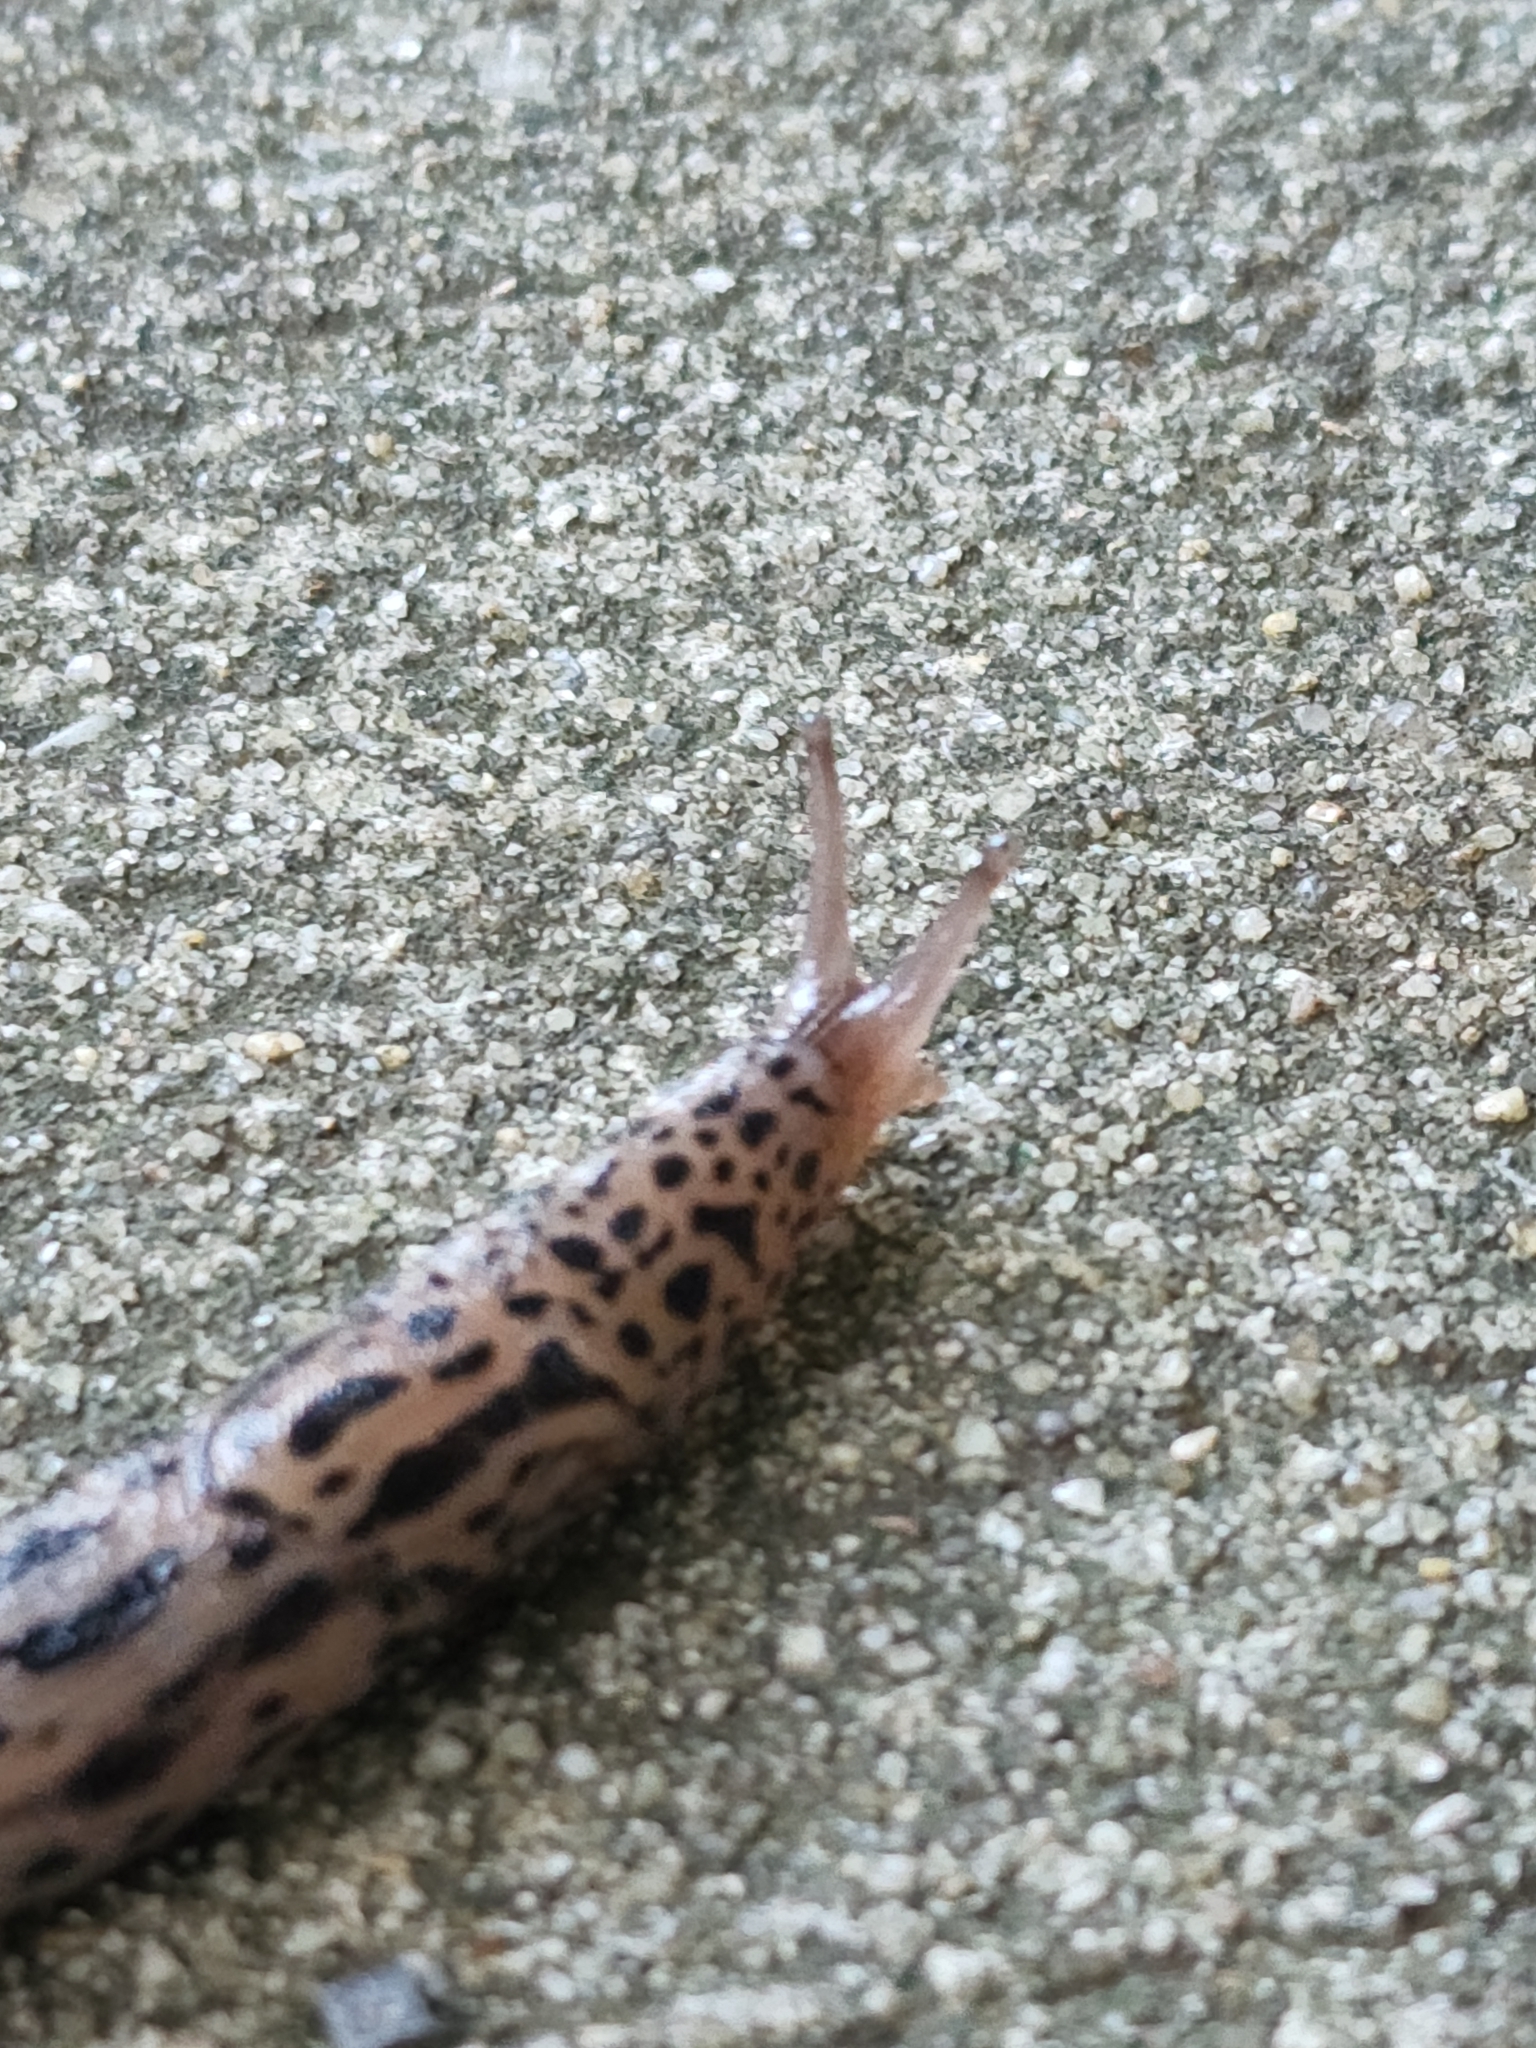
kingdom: Animalia
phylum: Mollusca
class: Gastropoda
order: Stylommatophora
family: Limacidae
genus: Limax
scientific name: Limax maximus
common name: Great grey slug
